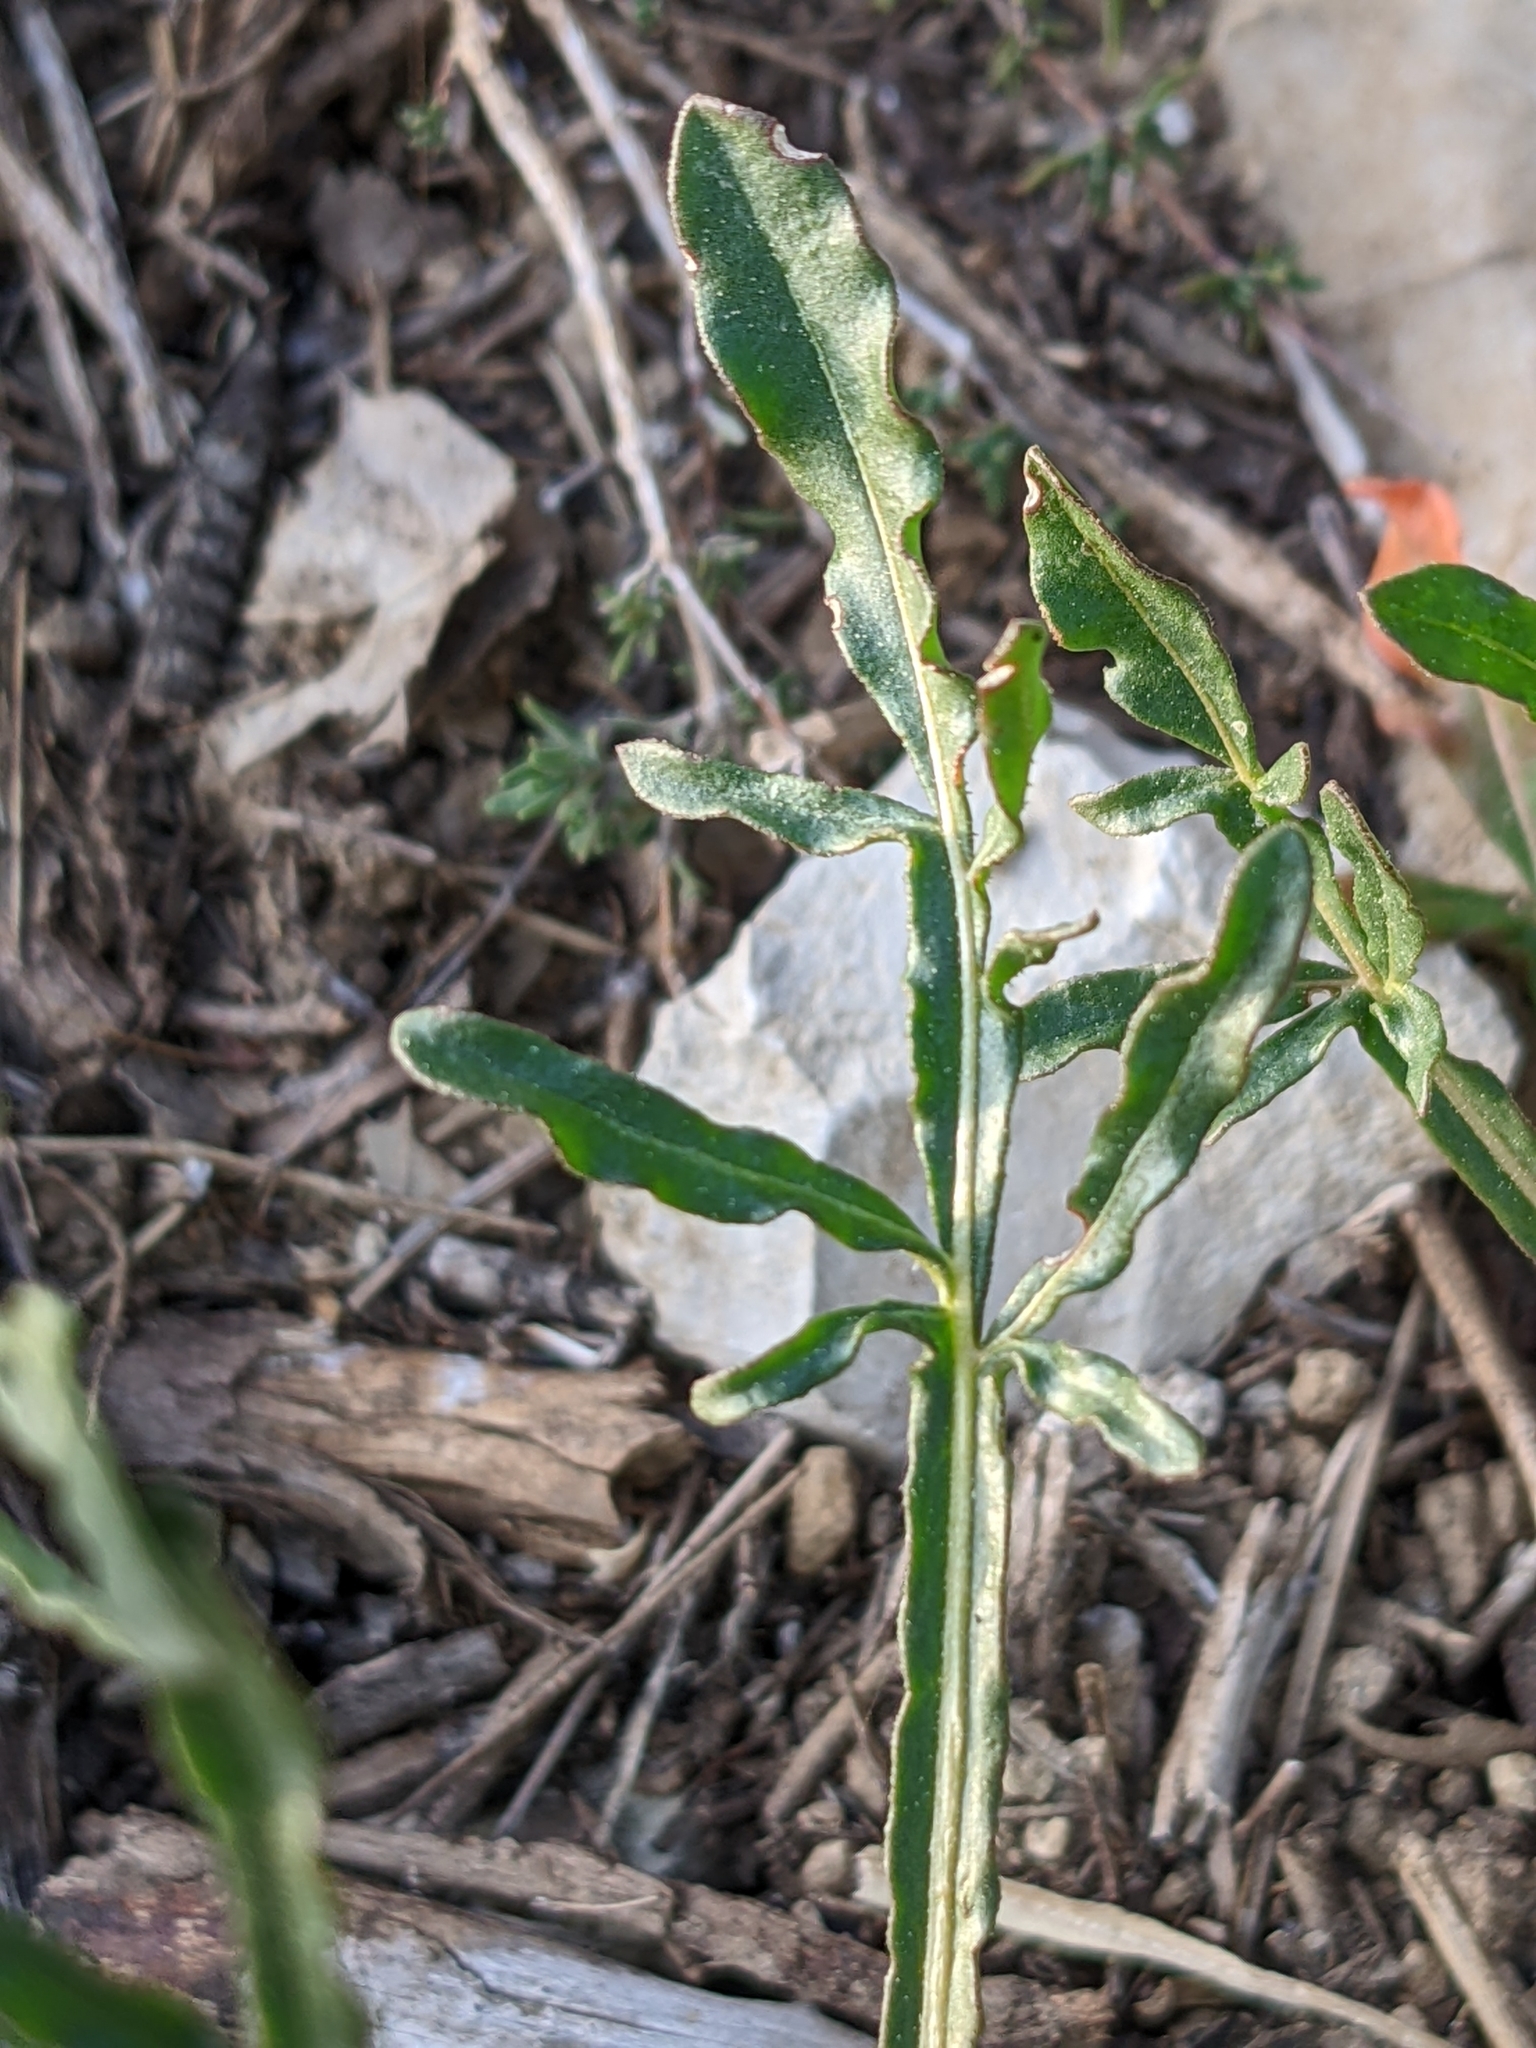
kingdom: Plantae
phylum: Tracheophyta
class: Magnoliopsida
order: Brassicales
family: Resedaceae
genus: Reseda
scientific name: Reseda lutea
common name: Wild mignonette
